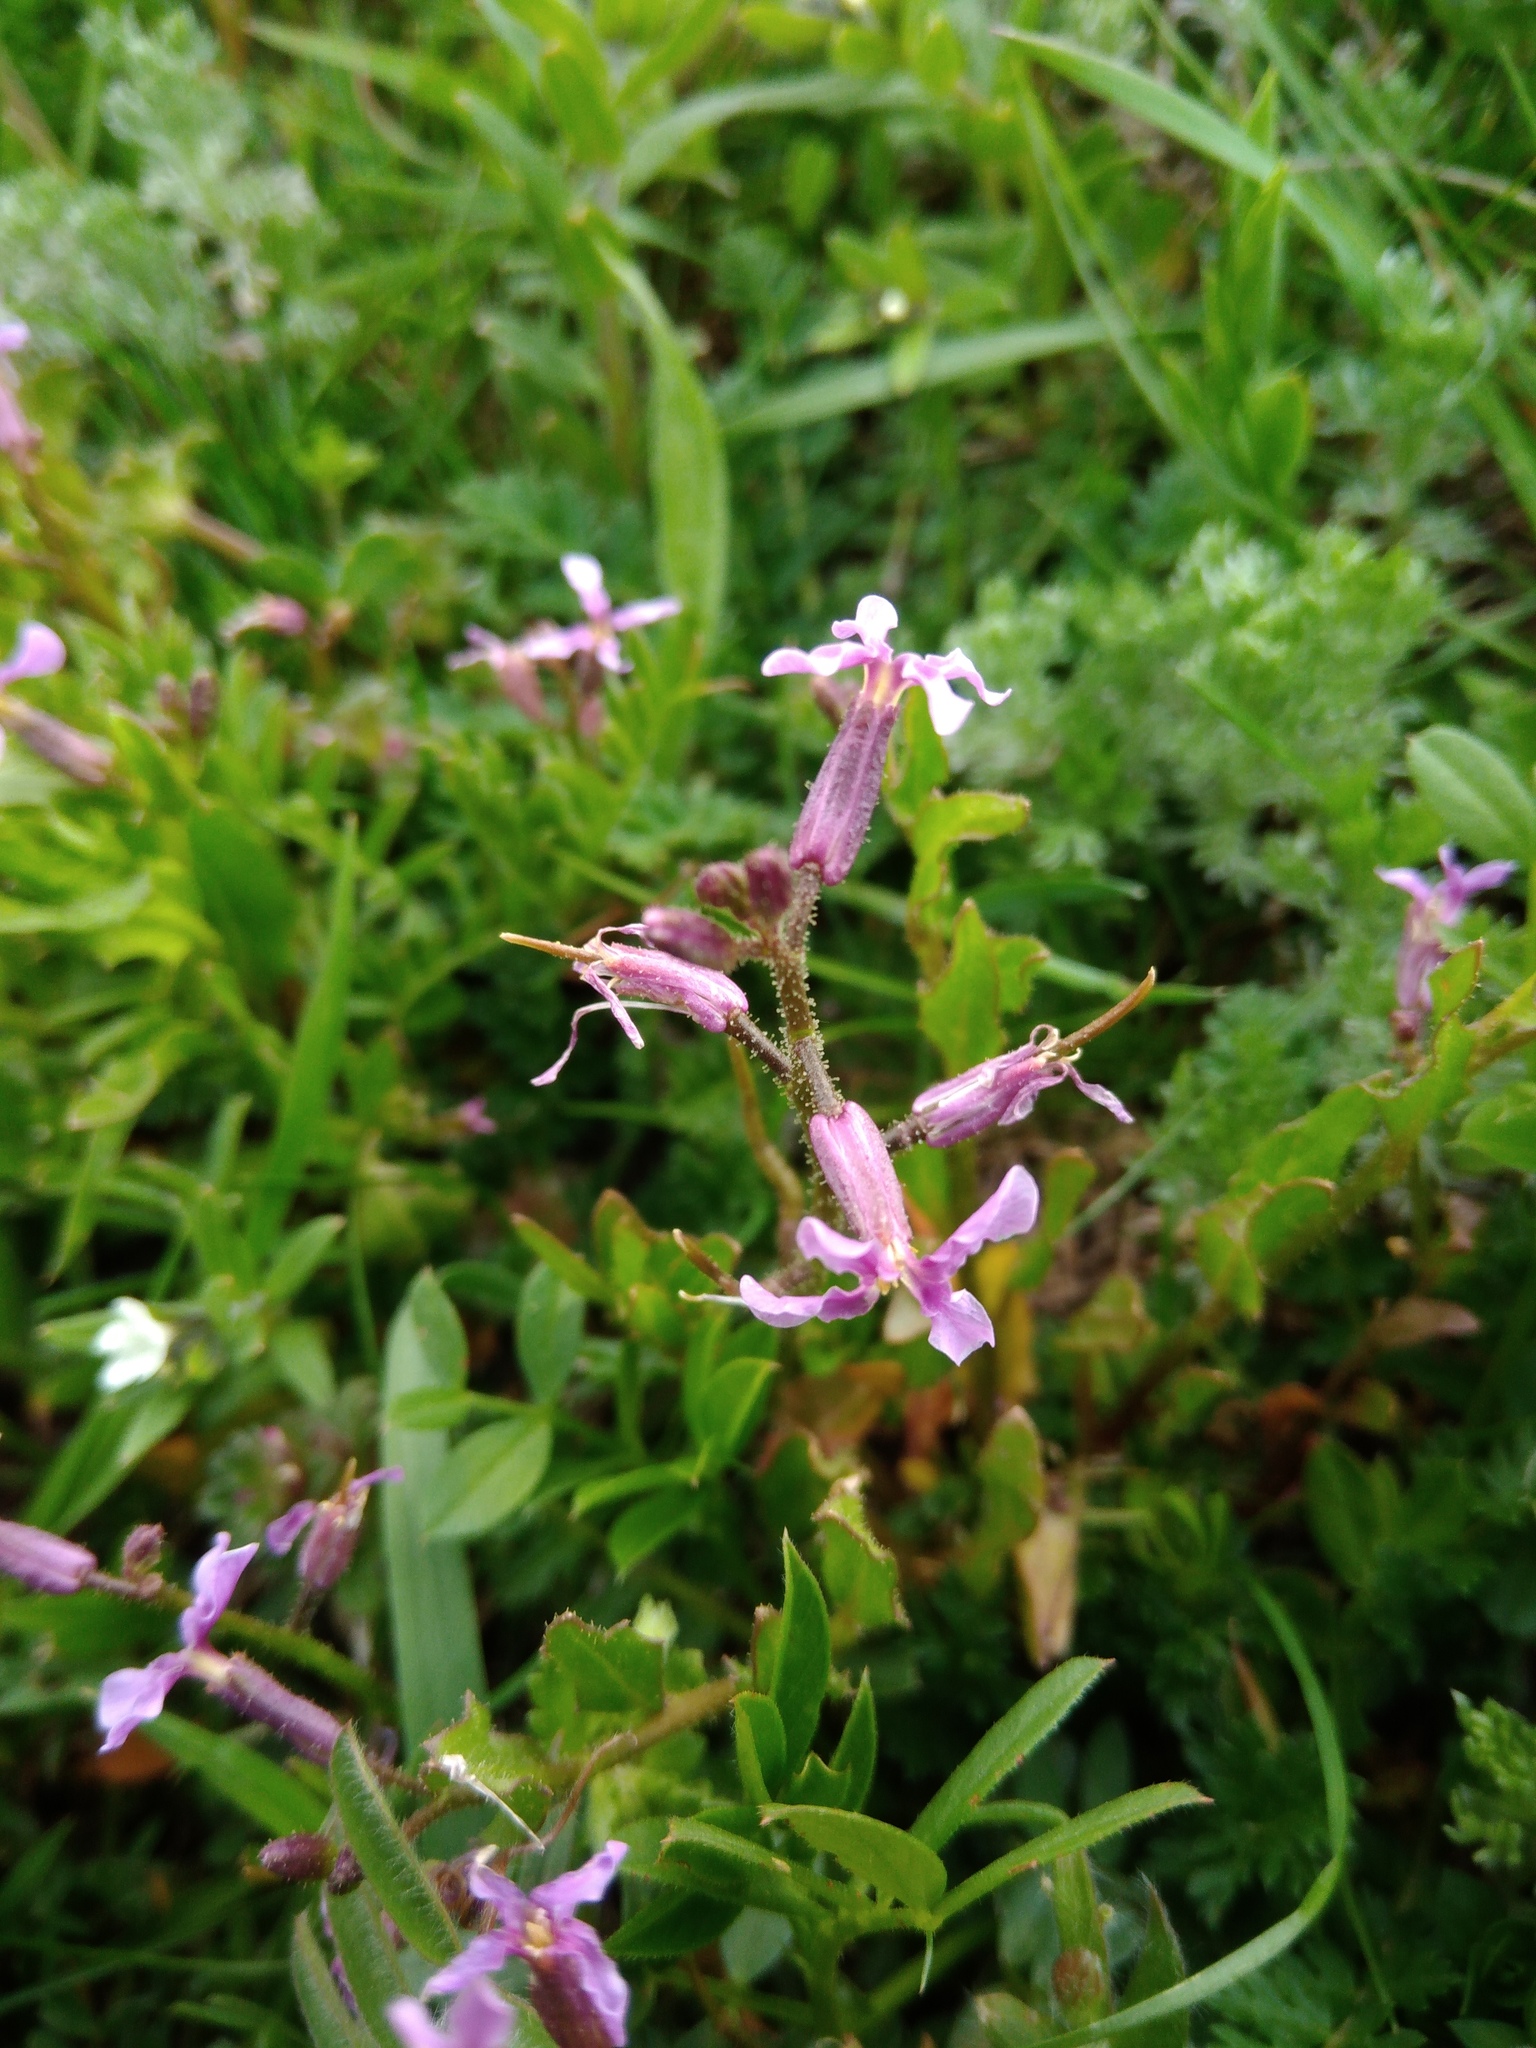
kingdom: Plantae
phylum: Tracheophyta
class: Magnoliopsida
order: Brassicales
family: Brassicaceae
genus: Chorispora
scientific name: Chorispora tenella
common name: Crossflower
